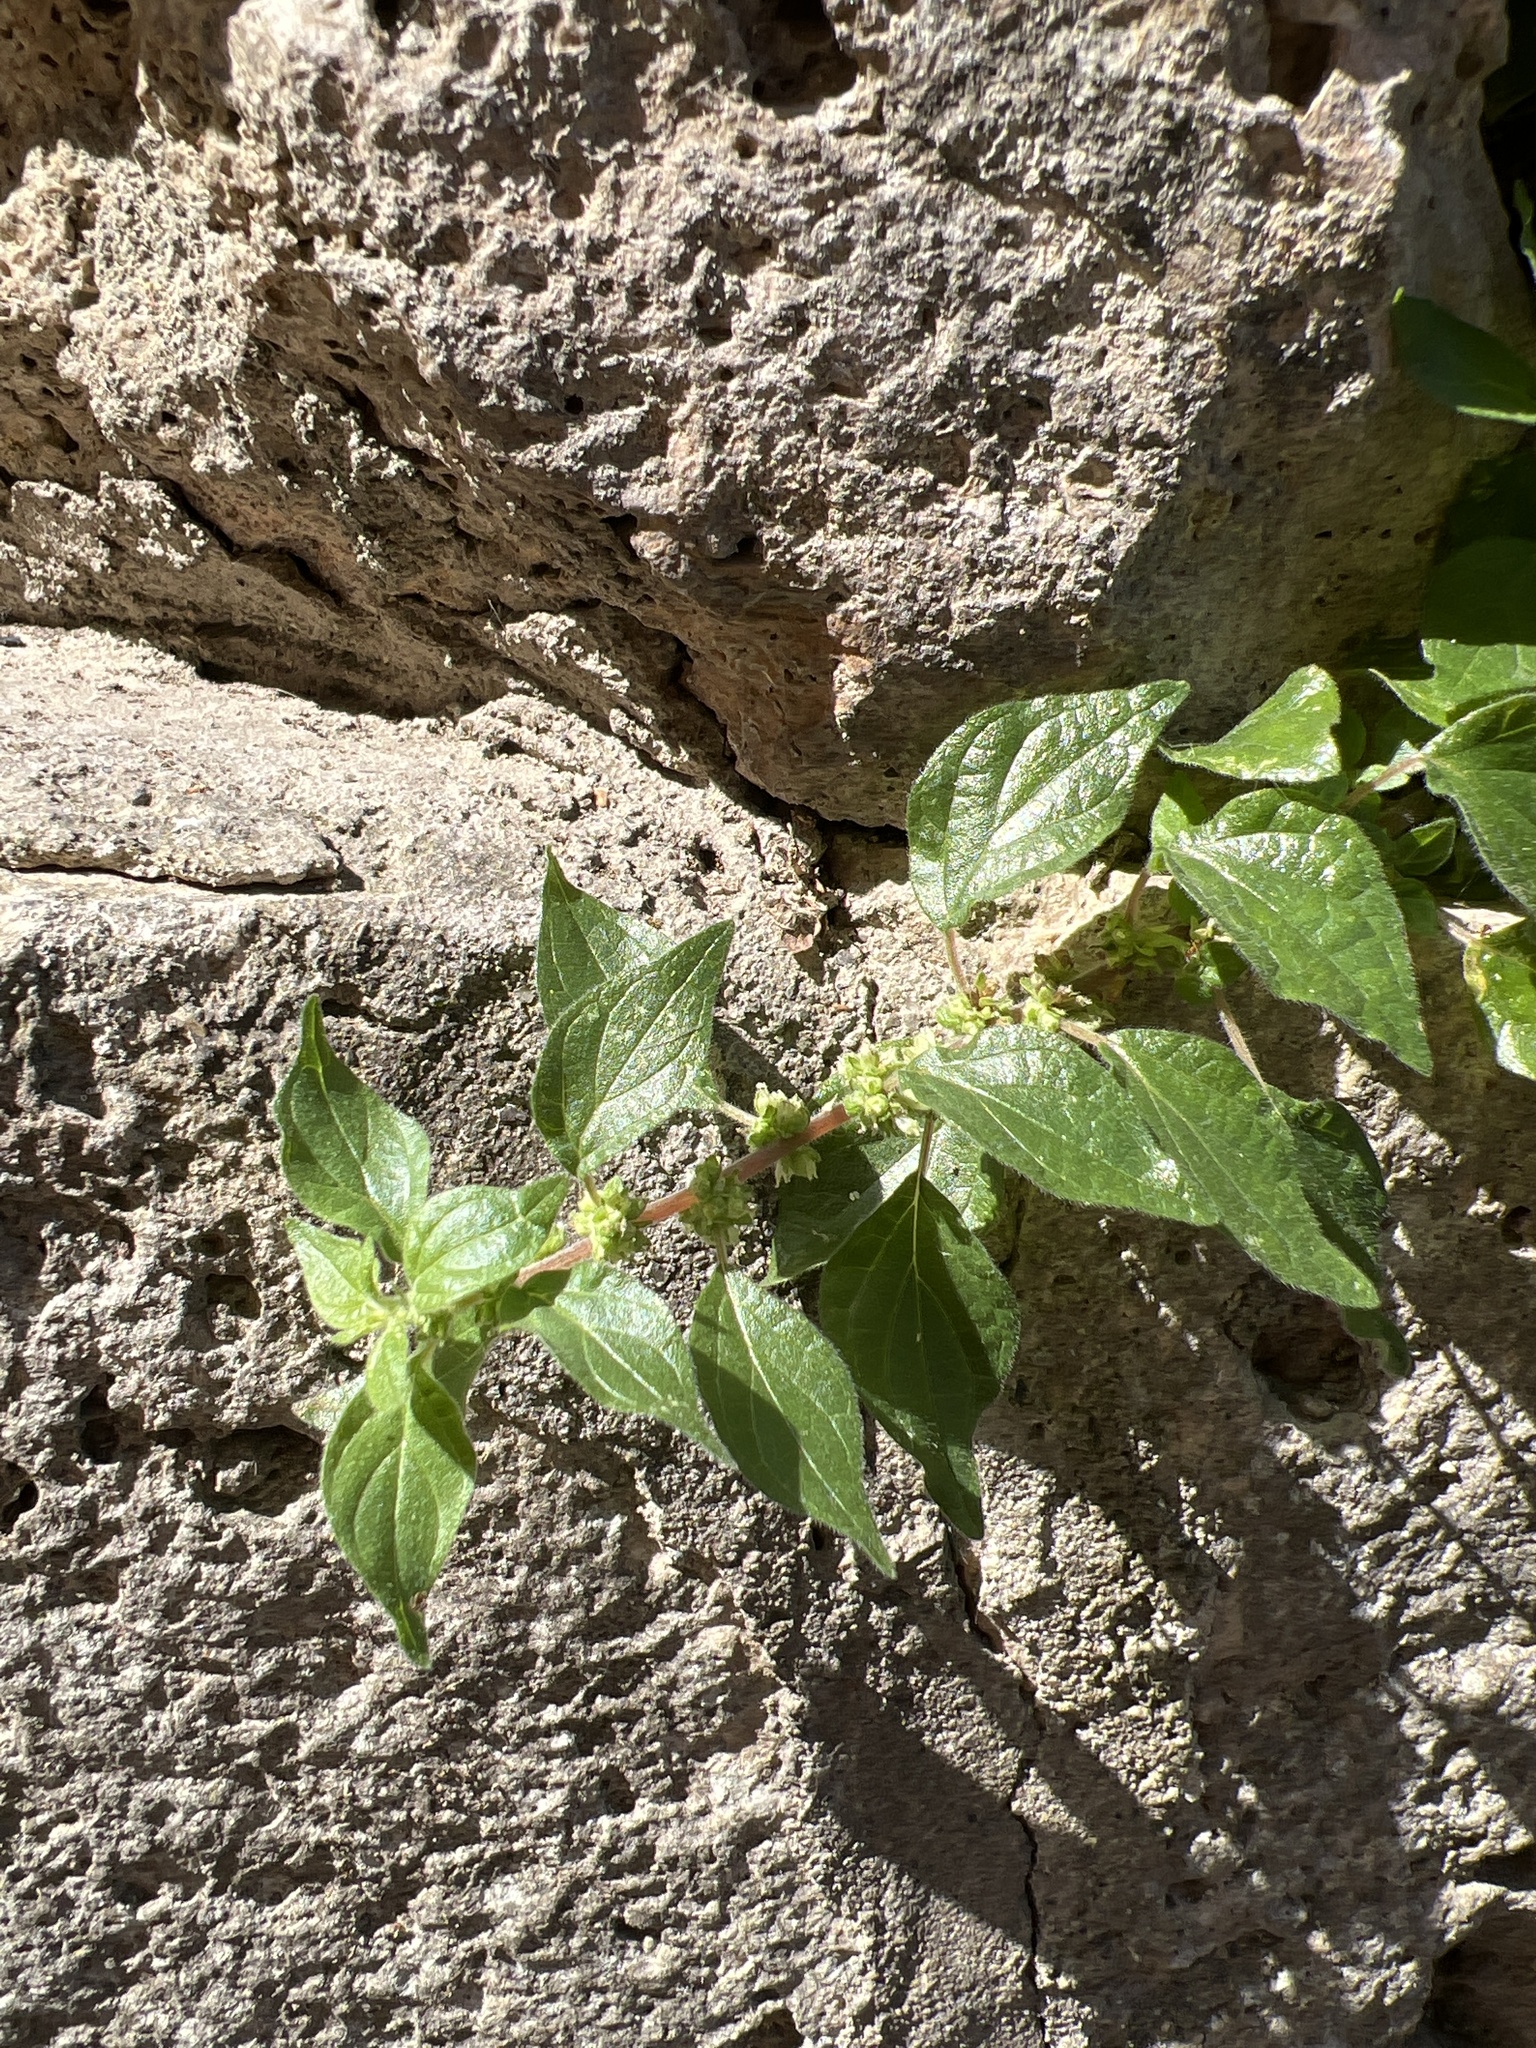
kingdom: Plantae
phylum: Tracheophyta
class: Magnoliopsida
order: Rosales
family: Urticaceae
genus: Parietaria
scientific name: Parietaria judaica
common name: Pellitory-of-the-wall
